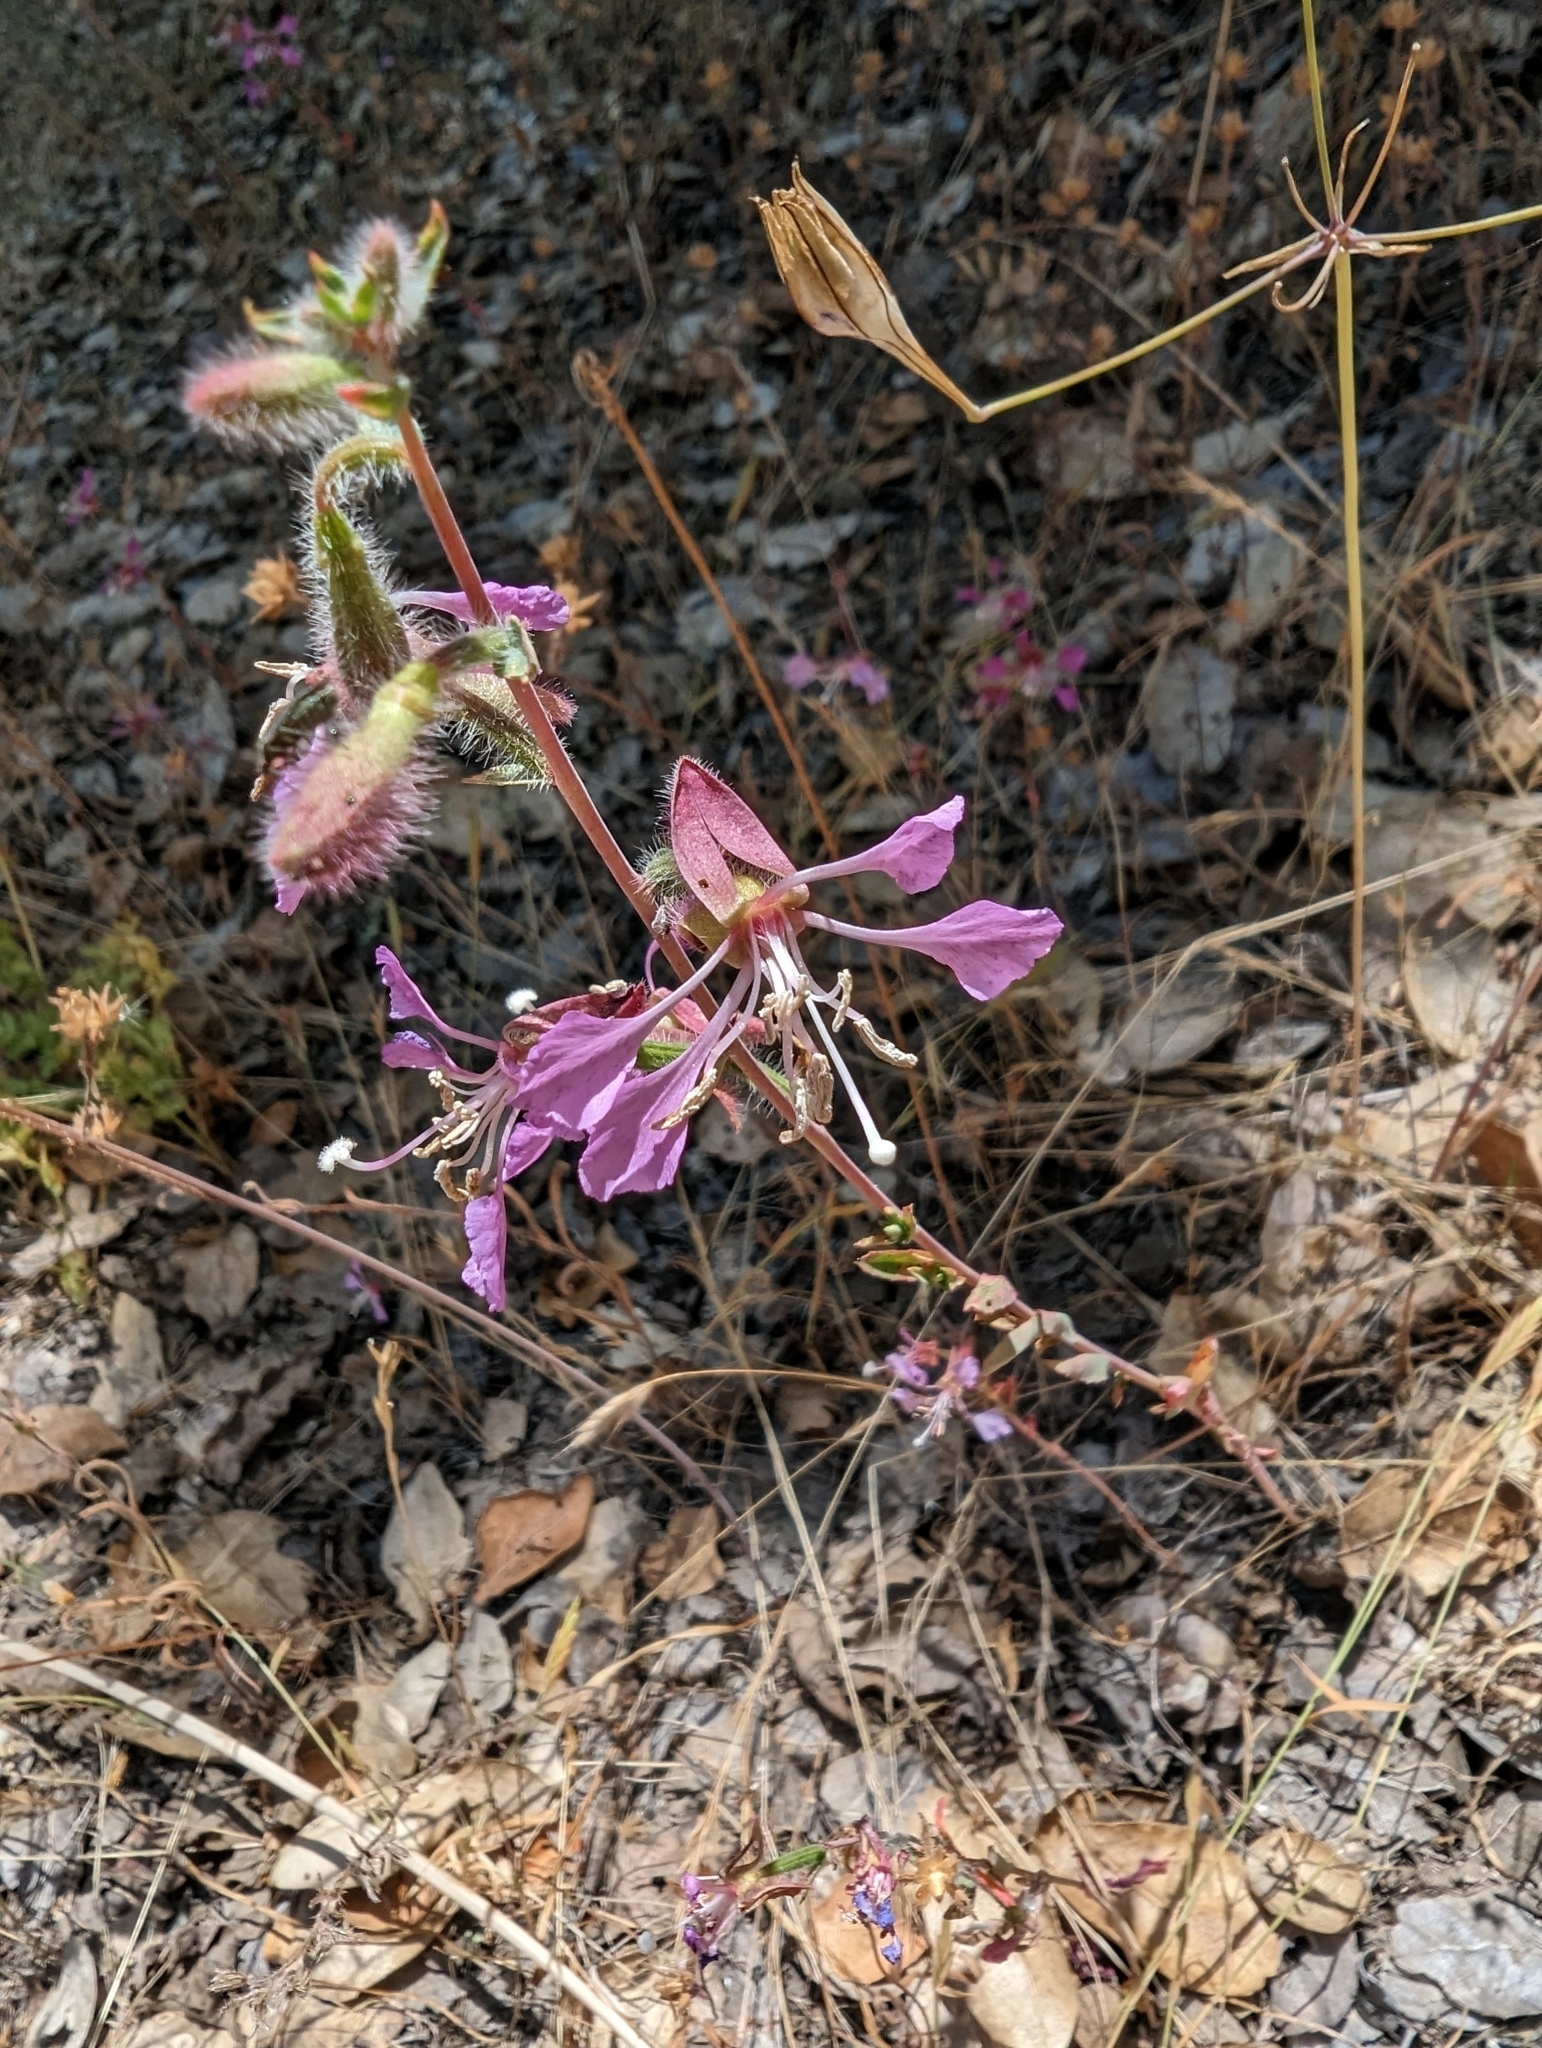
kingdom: Plantae
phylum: Tracheophyta
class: Magnoliopsida
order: Myrtales
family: Onagraceae
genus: Clarkia
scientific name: Clarkia unguiculata
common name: Clarkia
